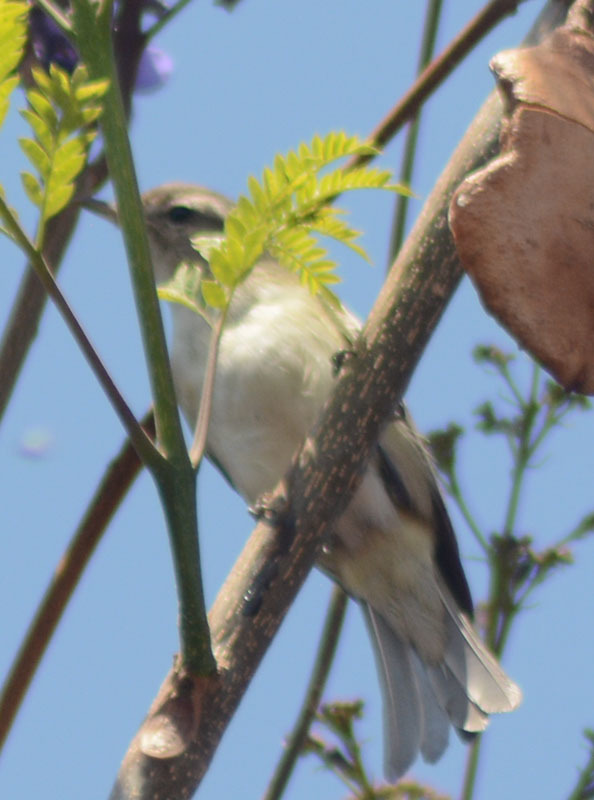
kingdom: Animalia
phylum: Chordata
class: Aves
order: Passeriformes
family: Vireonidae
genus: Vireo
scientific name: Vireo gilvus
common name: Warbling vireo
